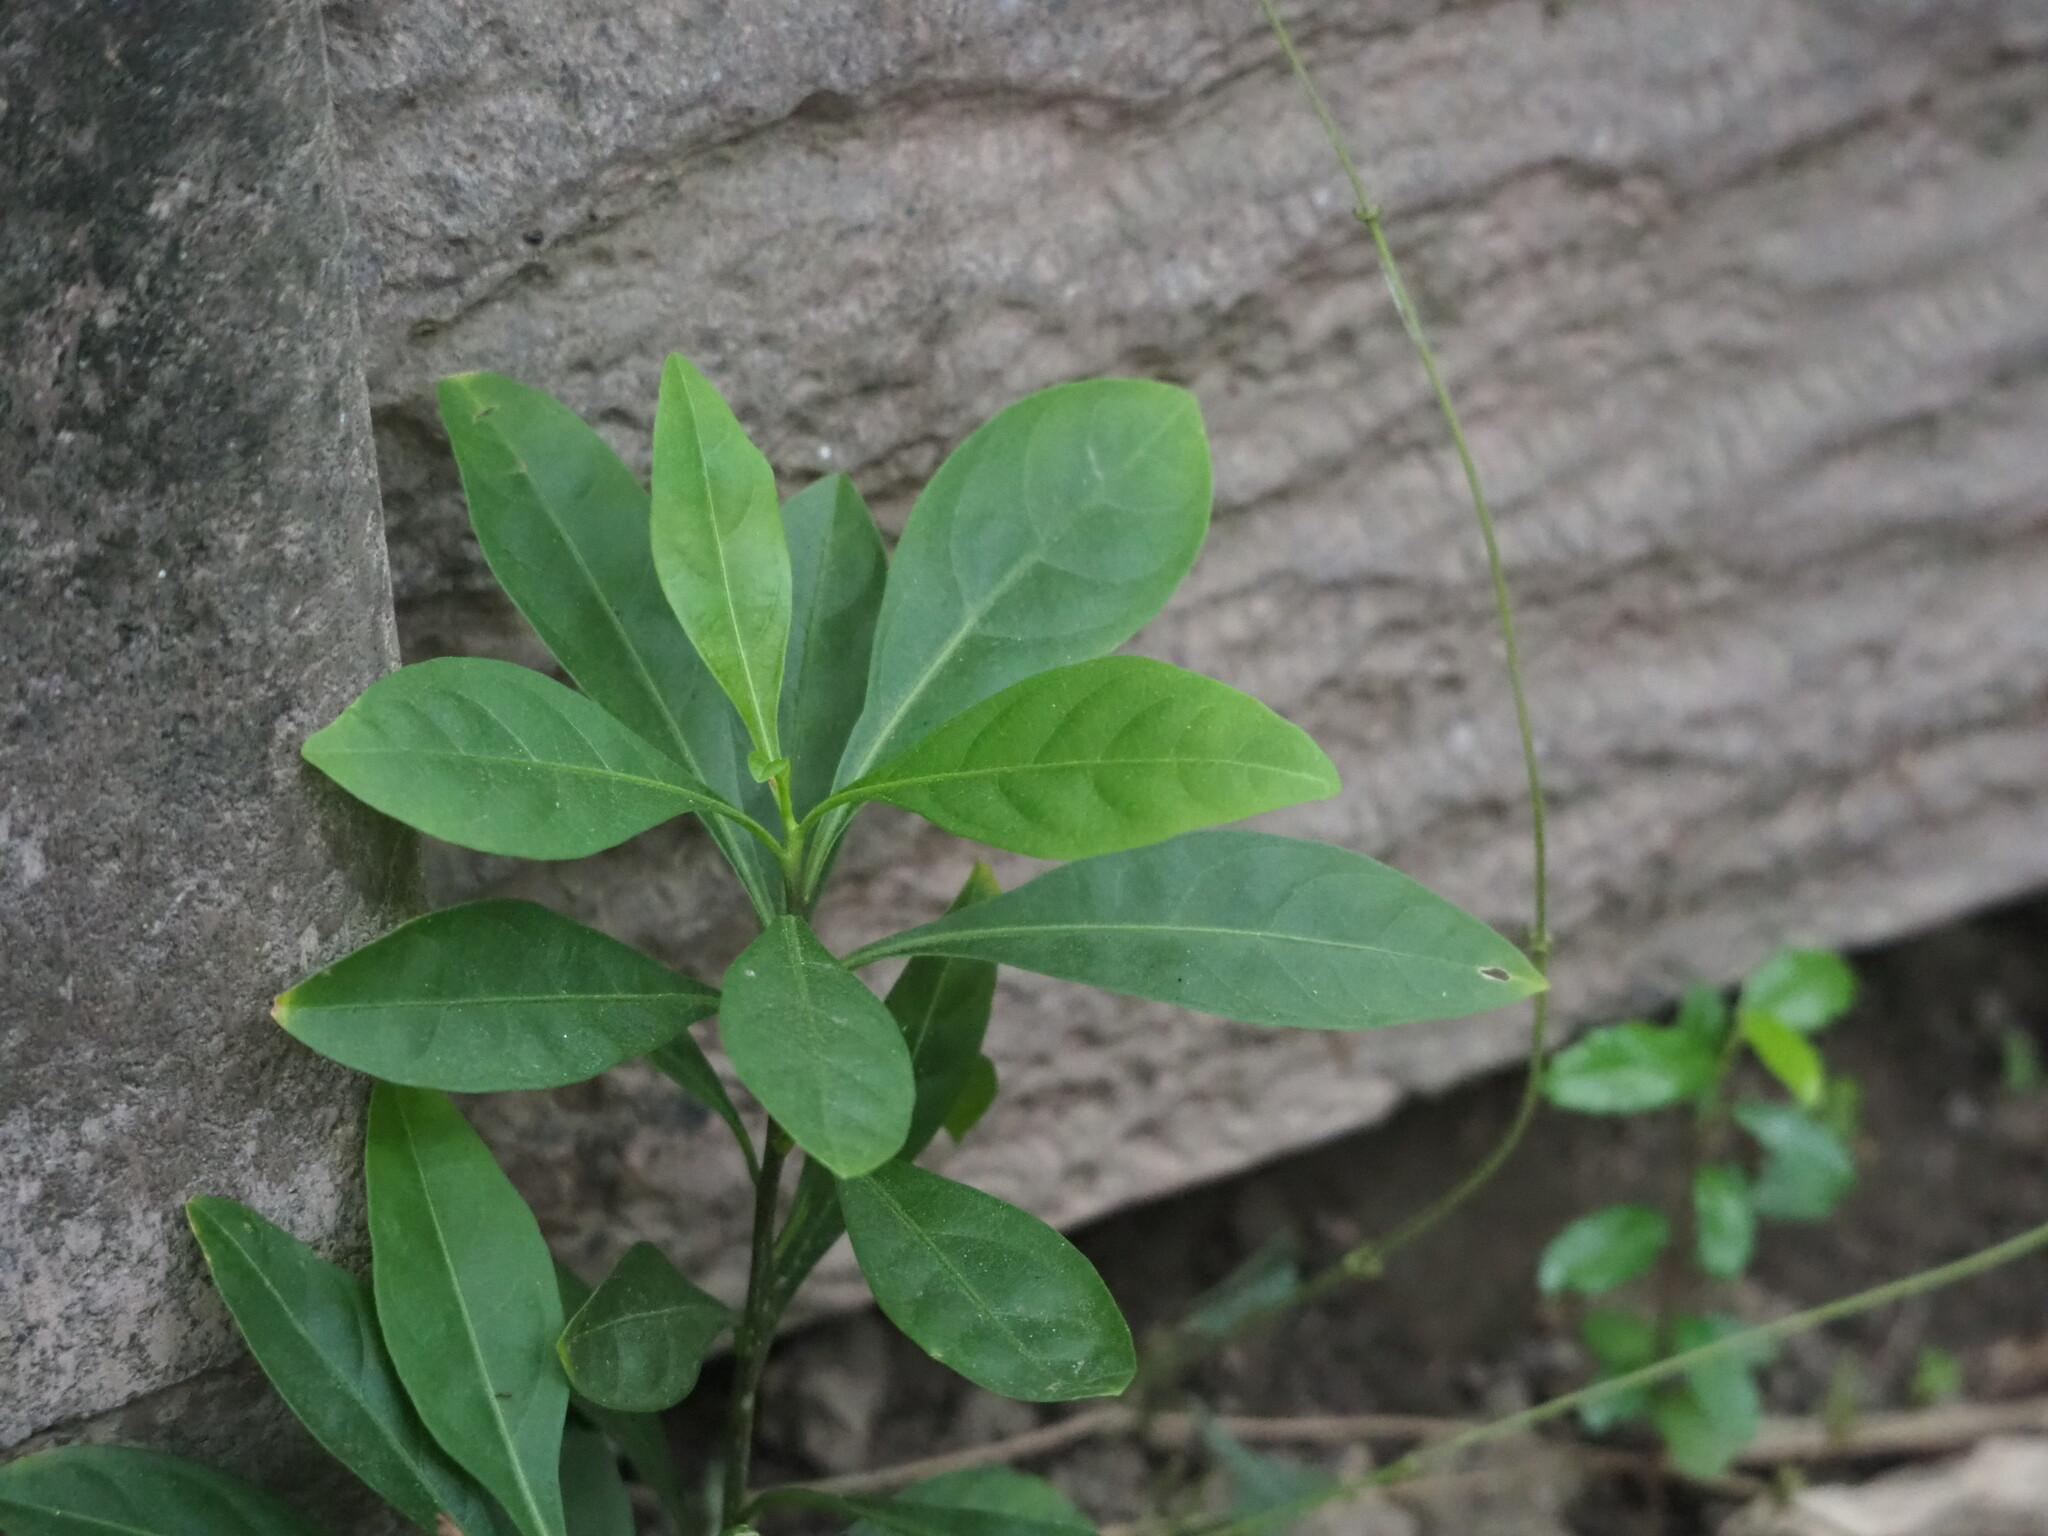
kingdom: Plantae
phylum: Tracheophyta
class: Magnoliopsida
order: Solanales
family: Solanaceae
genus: Solanum
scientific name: Solanum diphyllum
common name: Twoleaf nightshade
